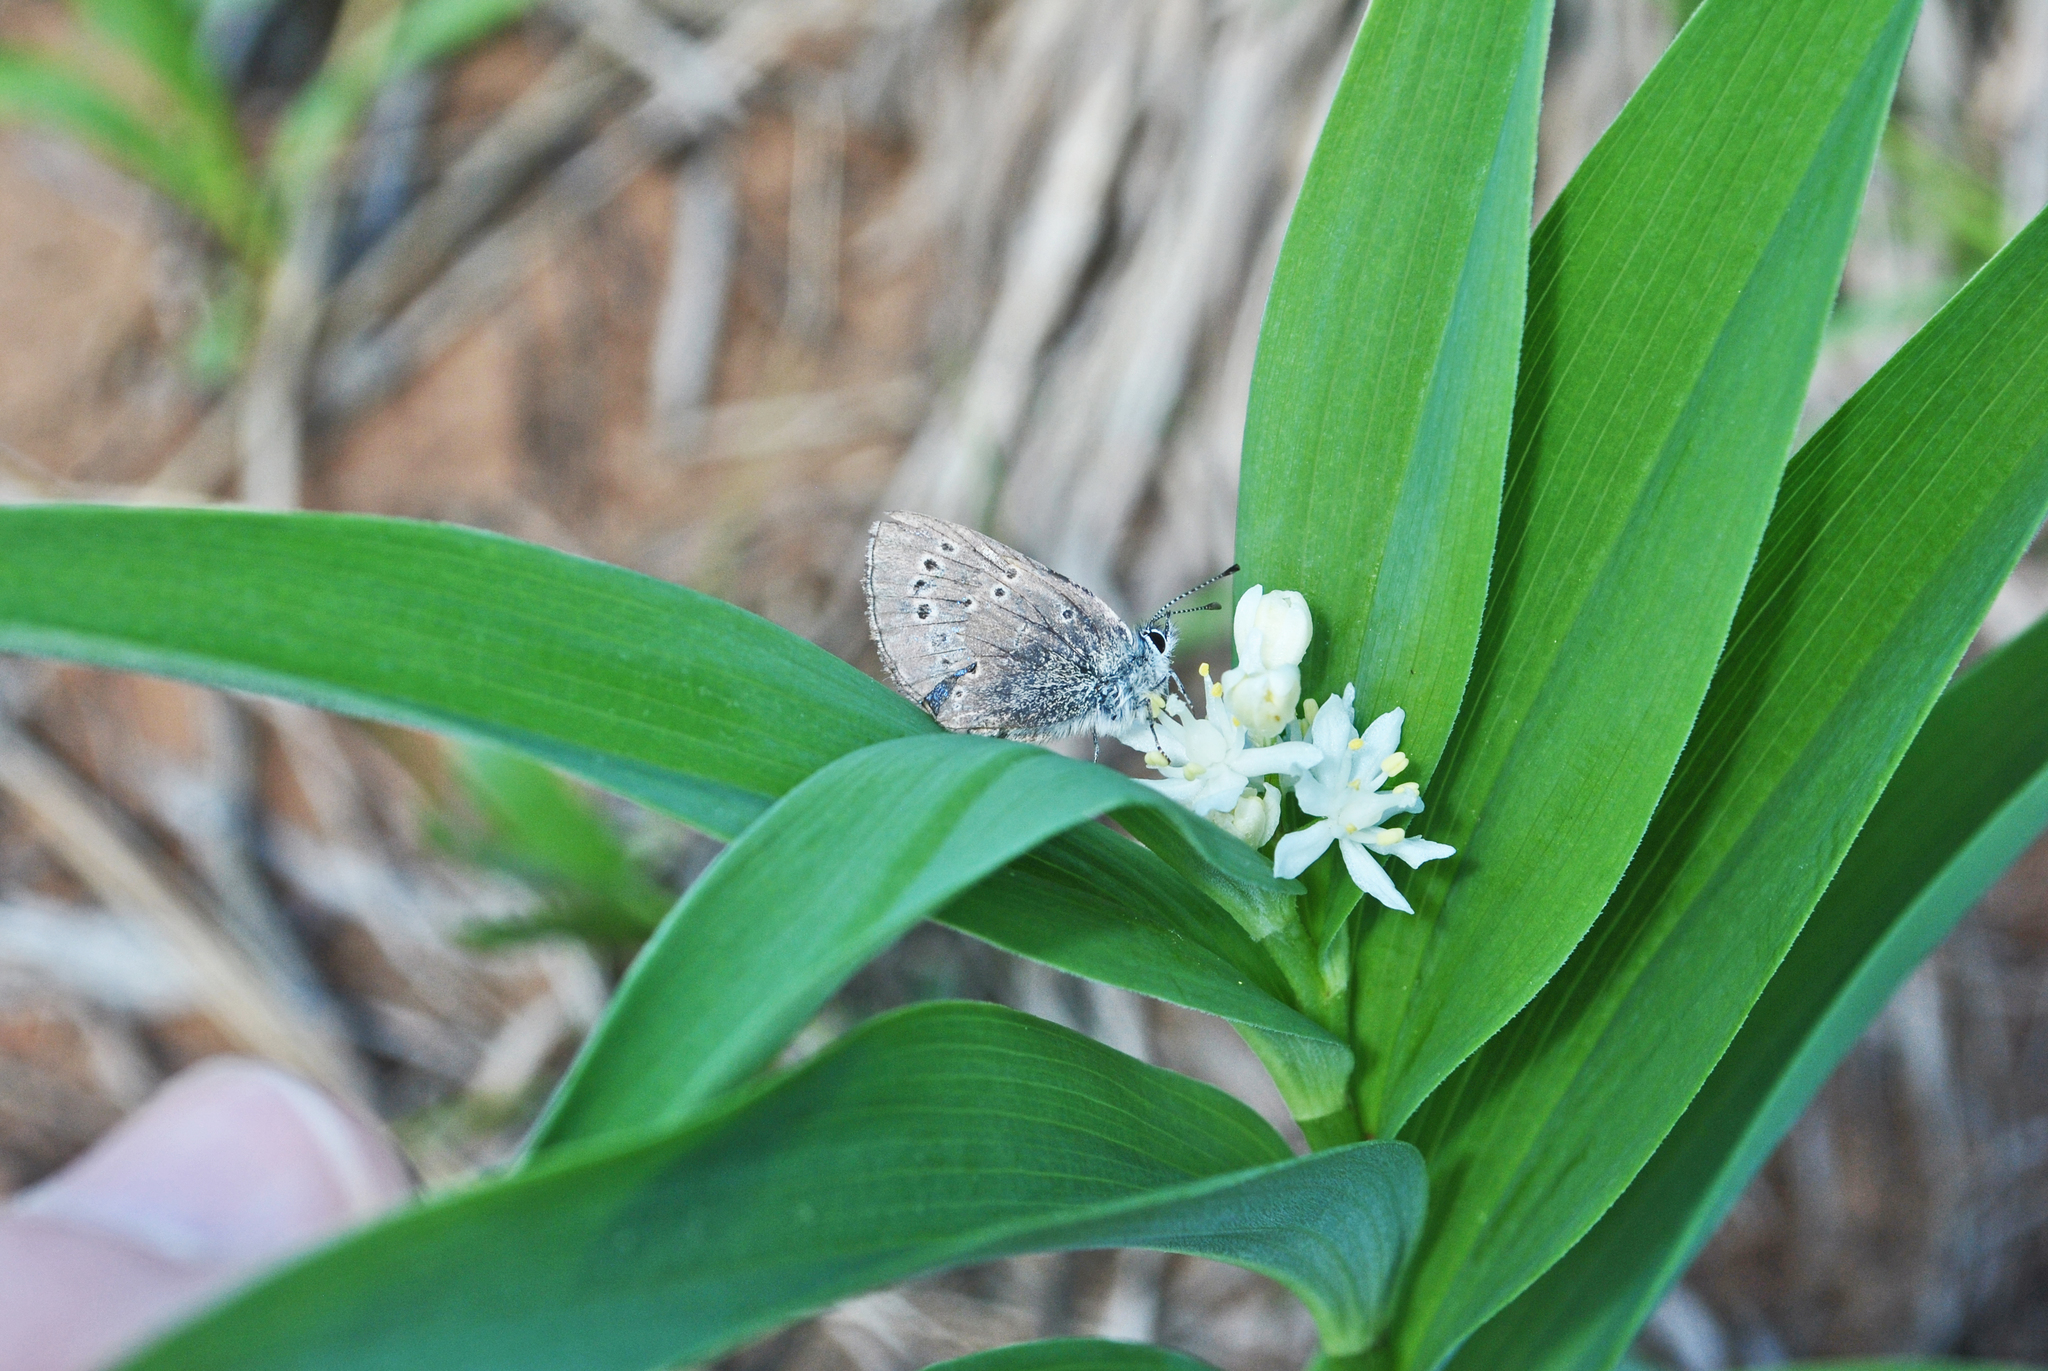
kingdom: Plantae
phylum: Tracheophyta
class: Liliopsida
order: Asparagales
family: Asparagaceae
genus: Maianthemum
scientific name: Maianthemum stellatum
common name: Little false solomon's seal
